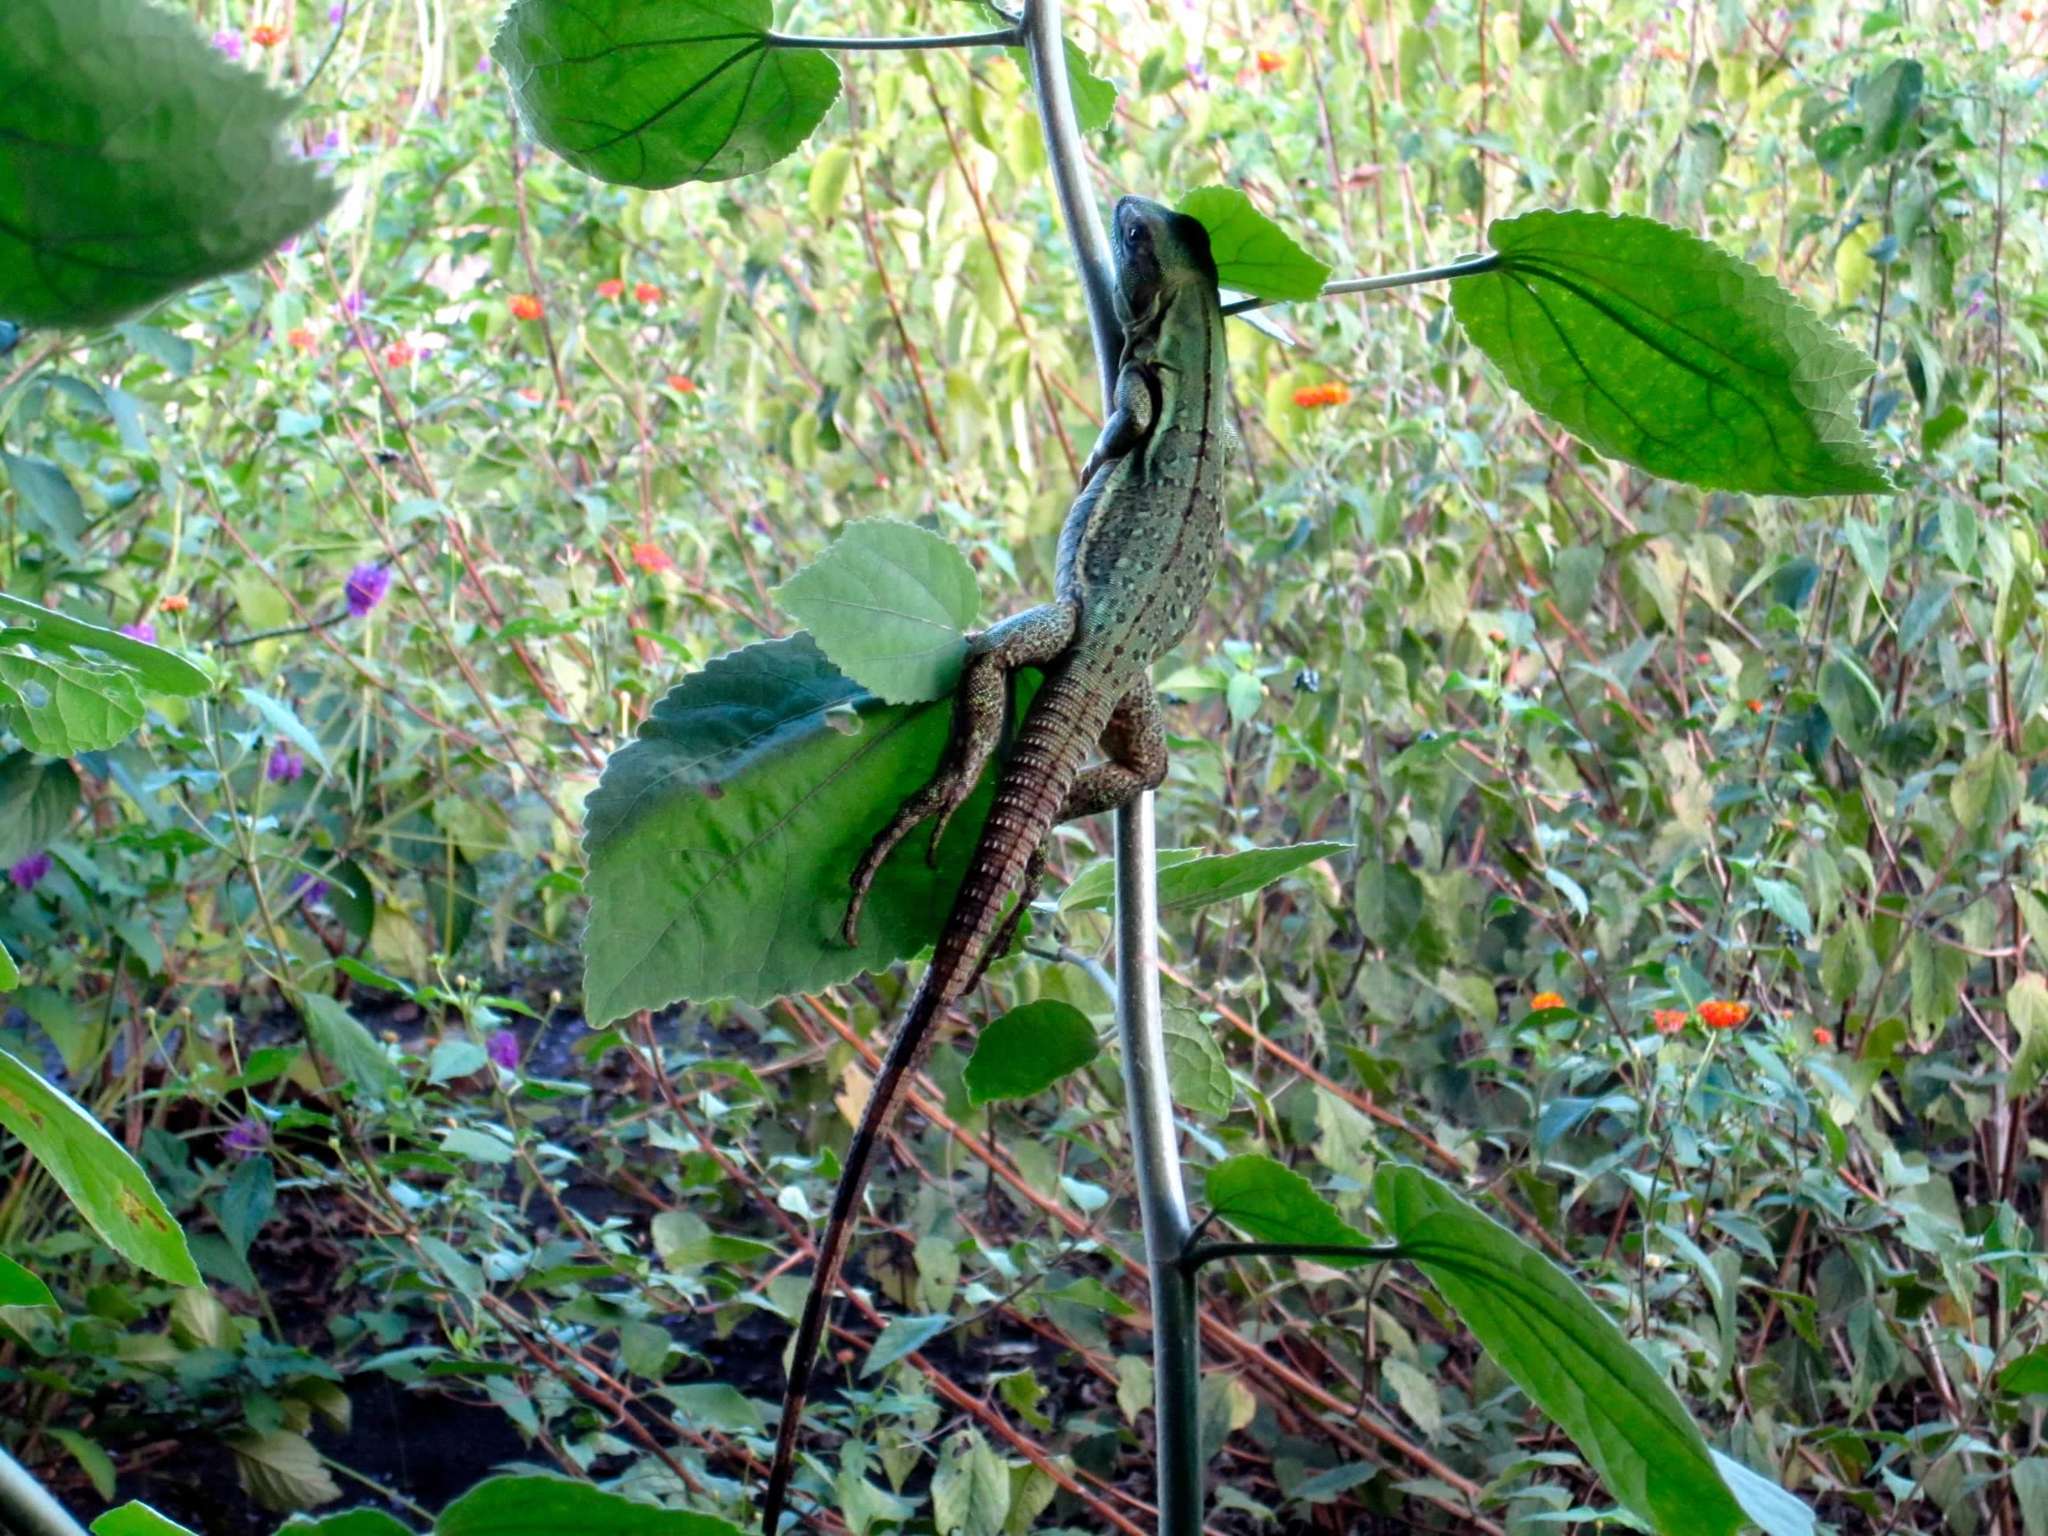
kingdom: Animalia
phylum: Chordata
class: Squamata
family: Iguanidae
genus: Ctenosaura
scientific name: Ctenosaura similis
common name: Black spiny-tailed iguana
